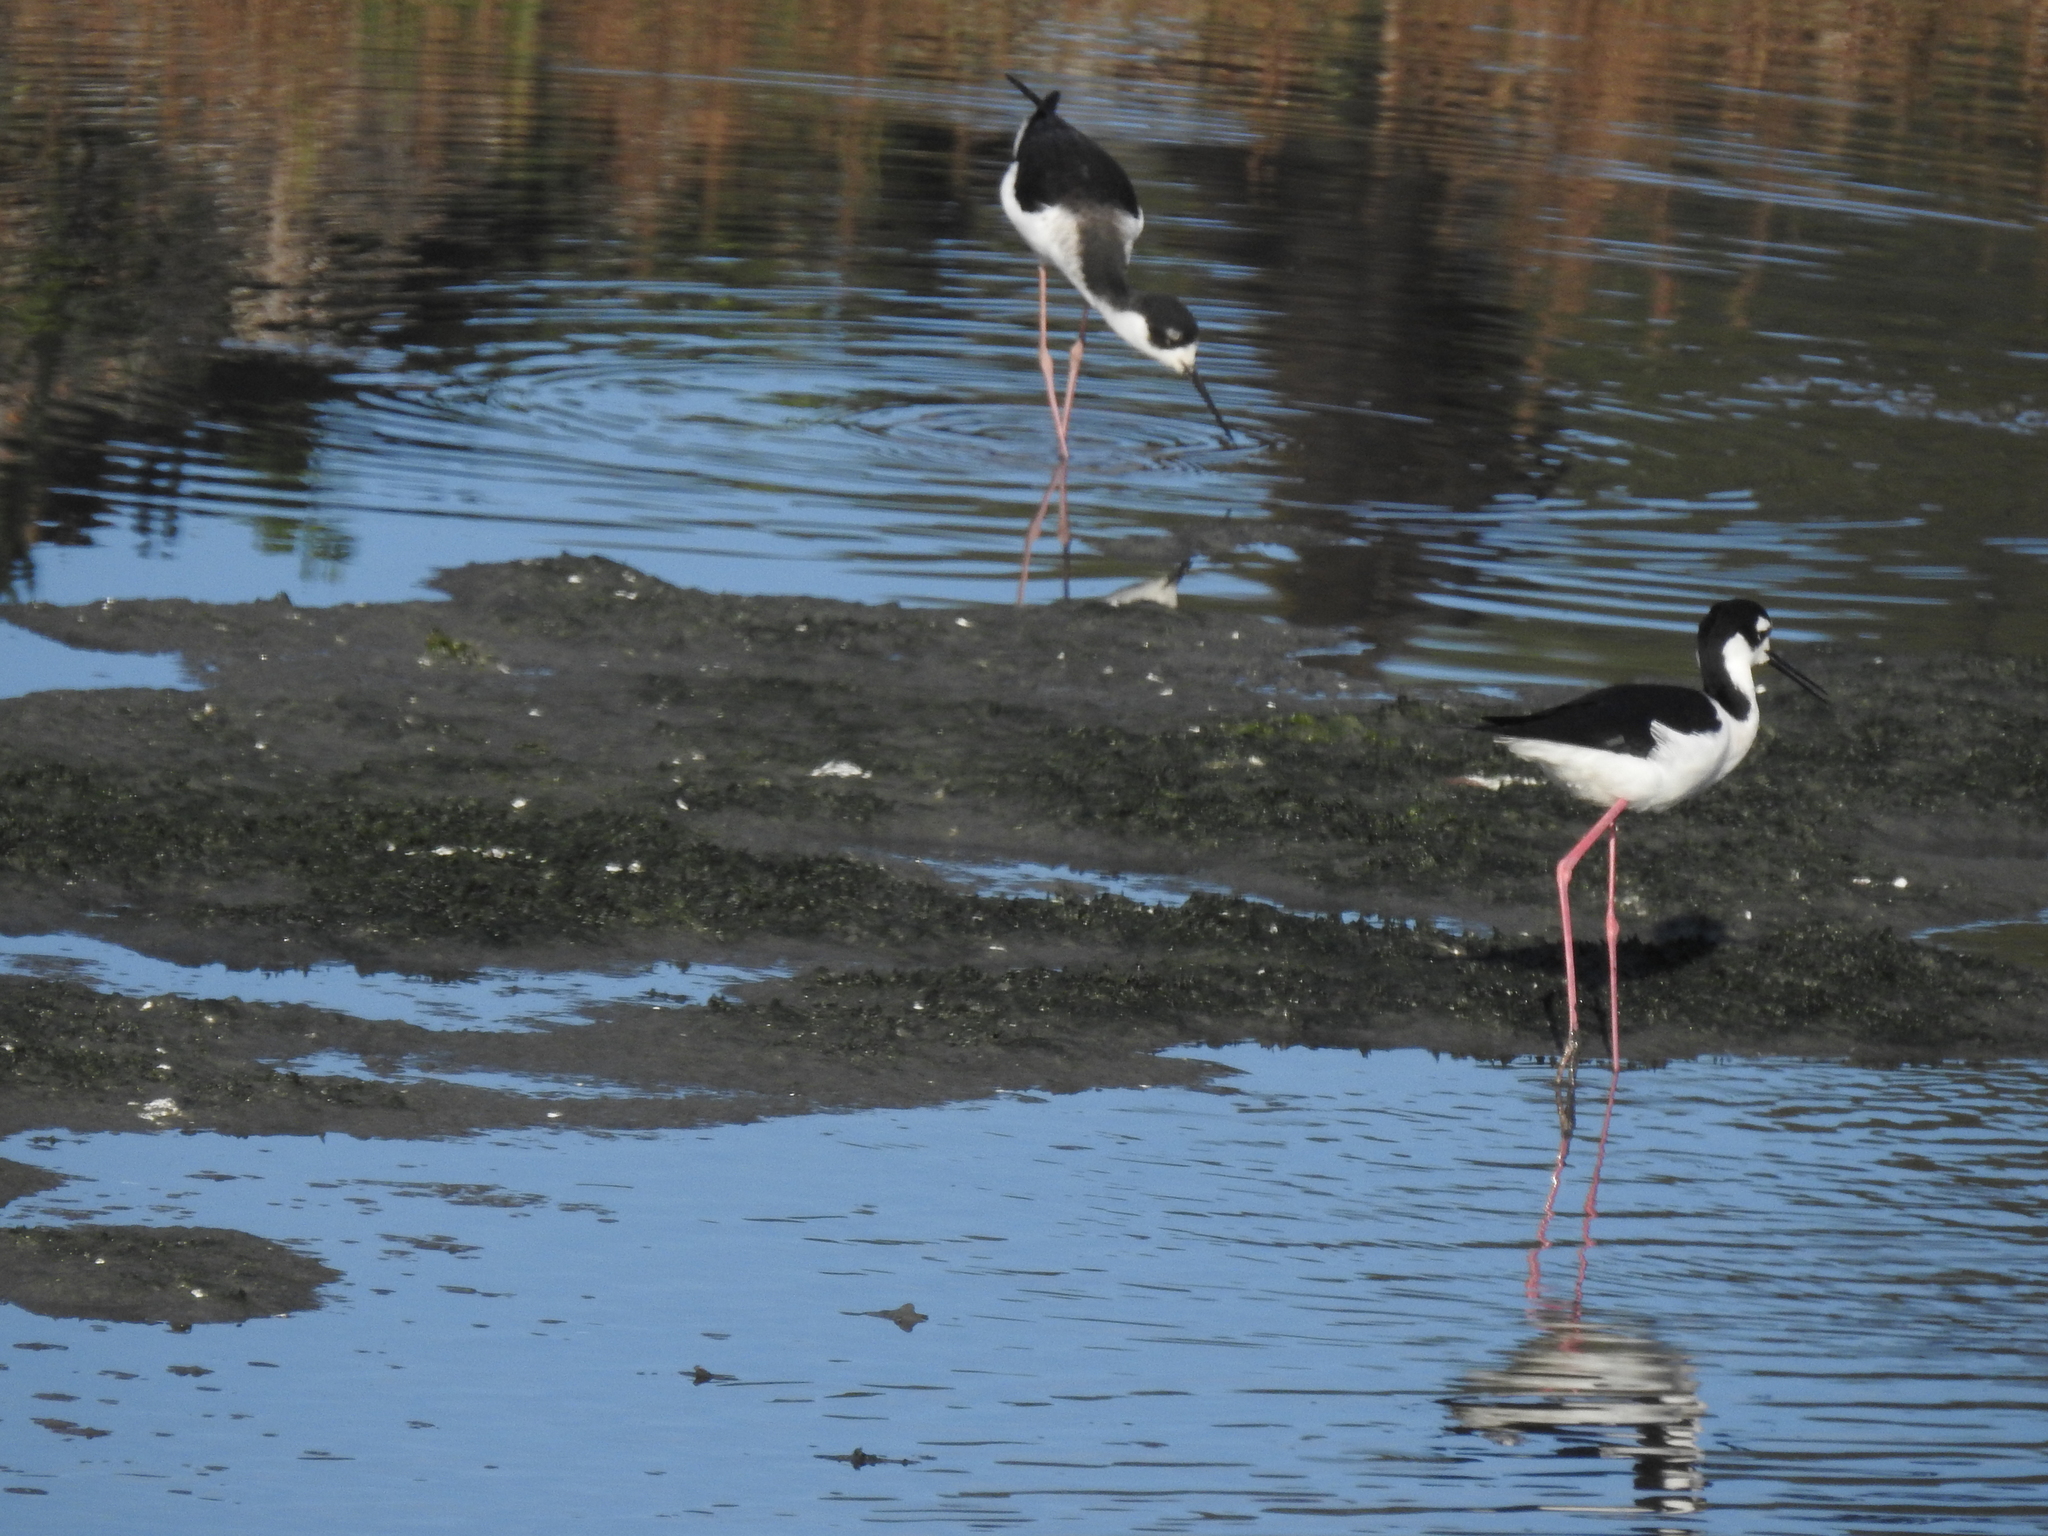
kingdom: Animalia
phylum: Chordata
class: Aves
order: Charadriiformes
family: Recurvirostridae
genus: Himantopus
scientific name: Himantopus mexicanus
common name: Black-necked stilt
